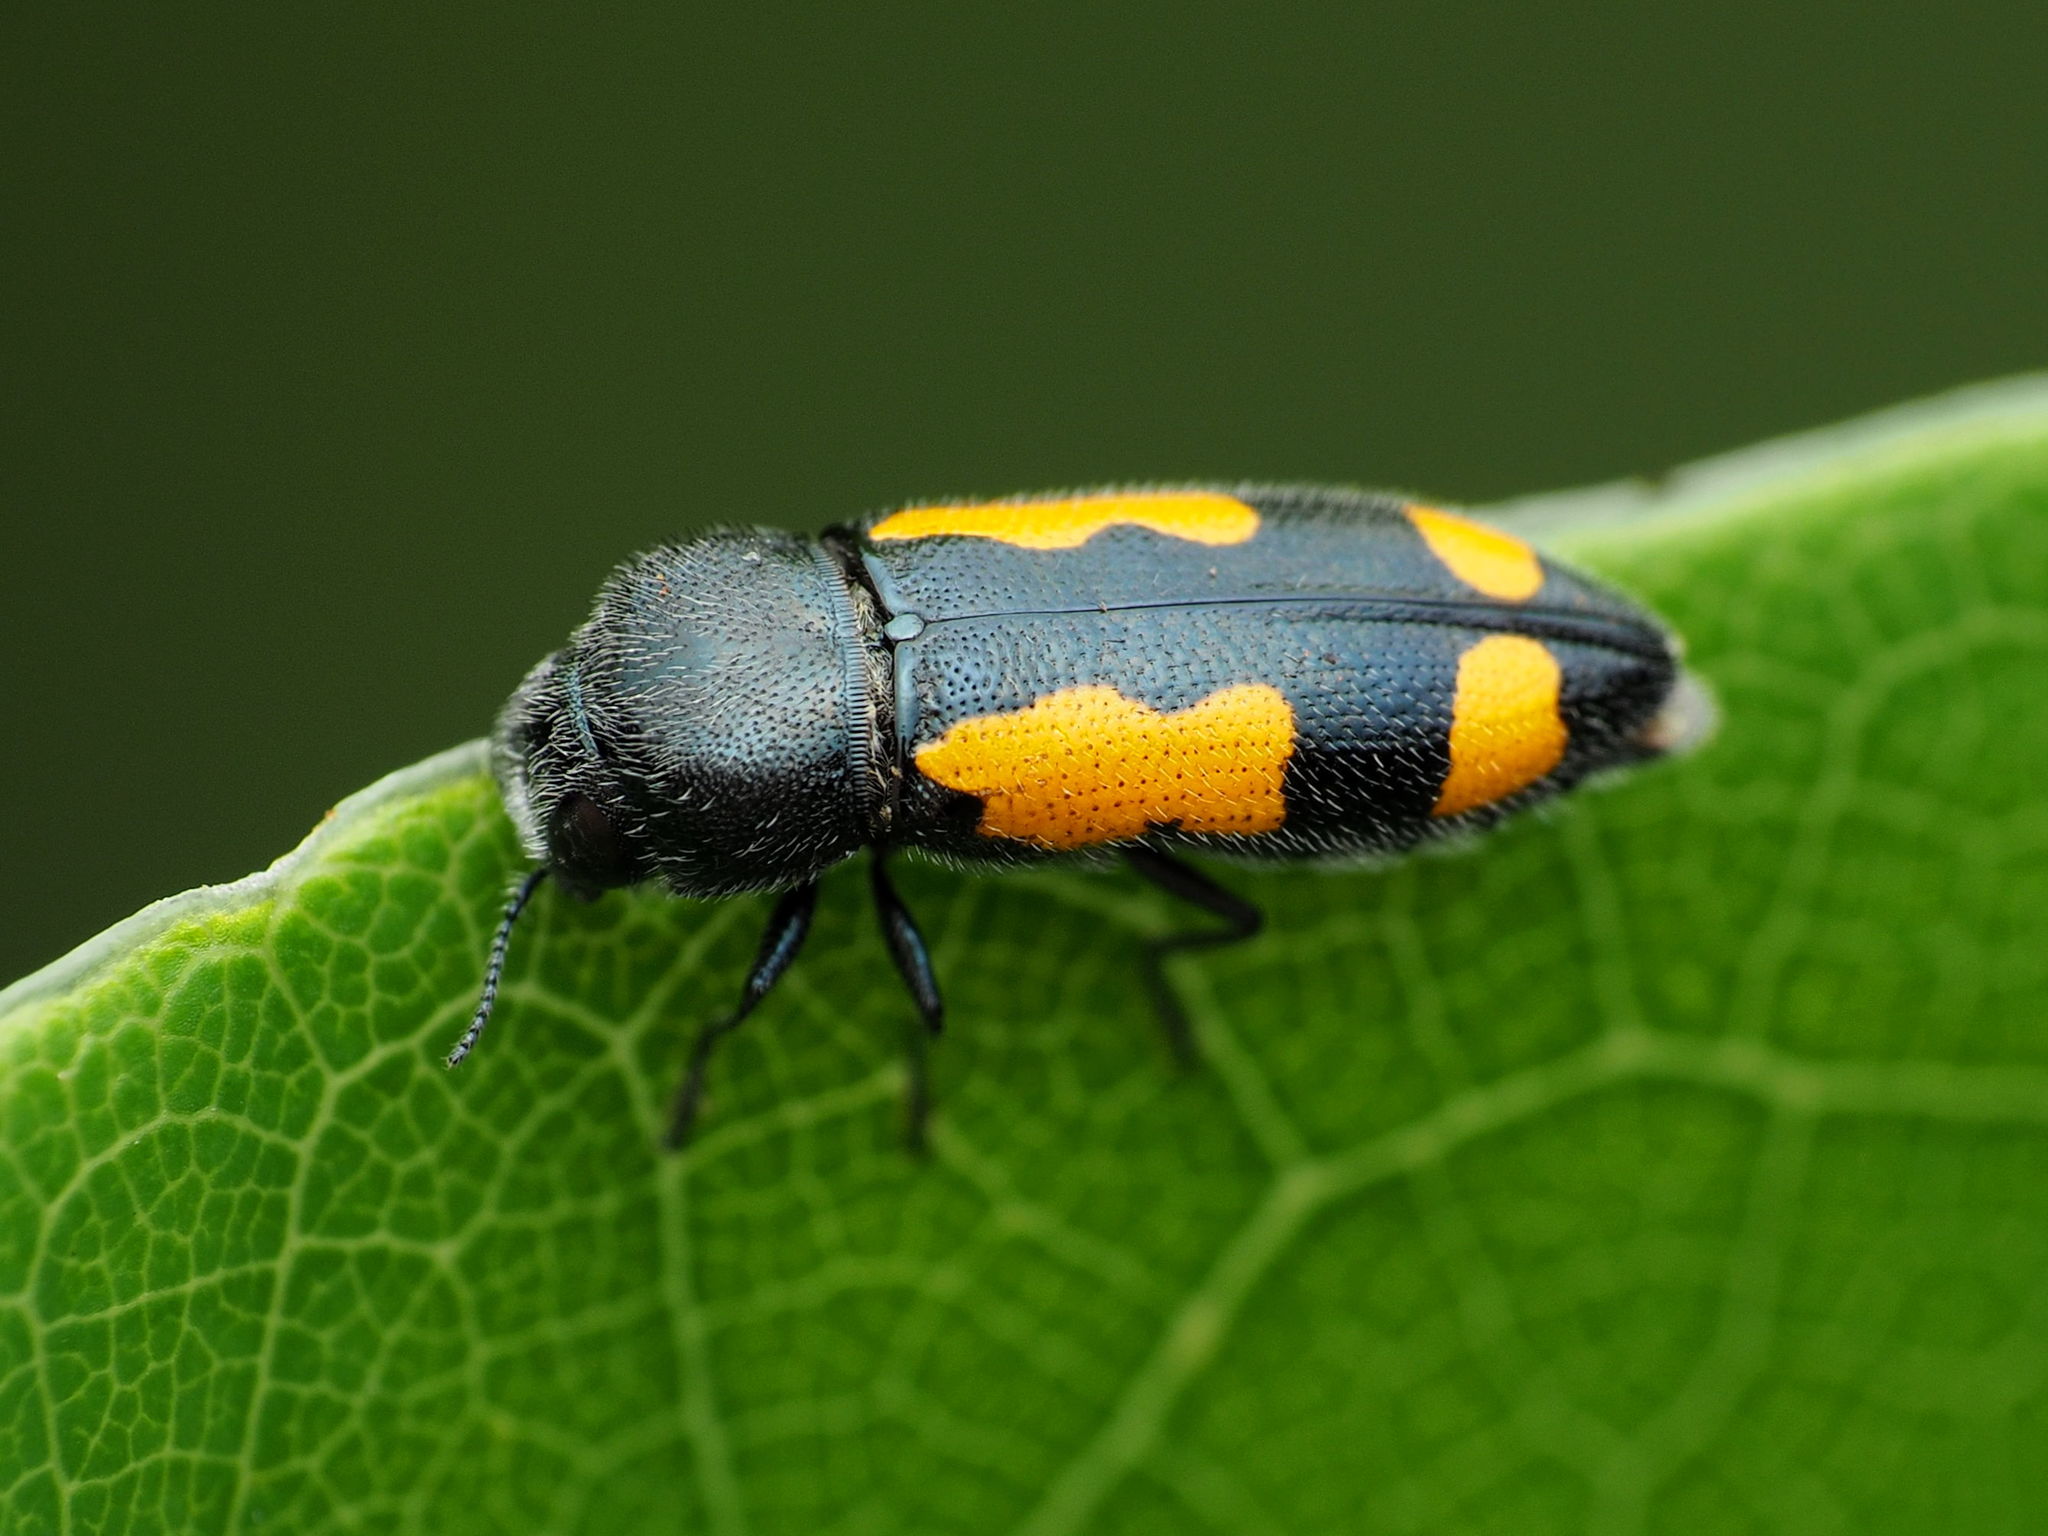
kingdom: Animalia
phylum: Arthropoda
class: Insecta
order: Coleoptera
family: Buprestidae
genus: Ptosima
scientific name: Ptosima gibbicollis
